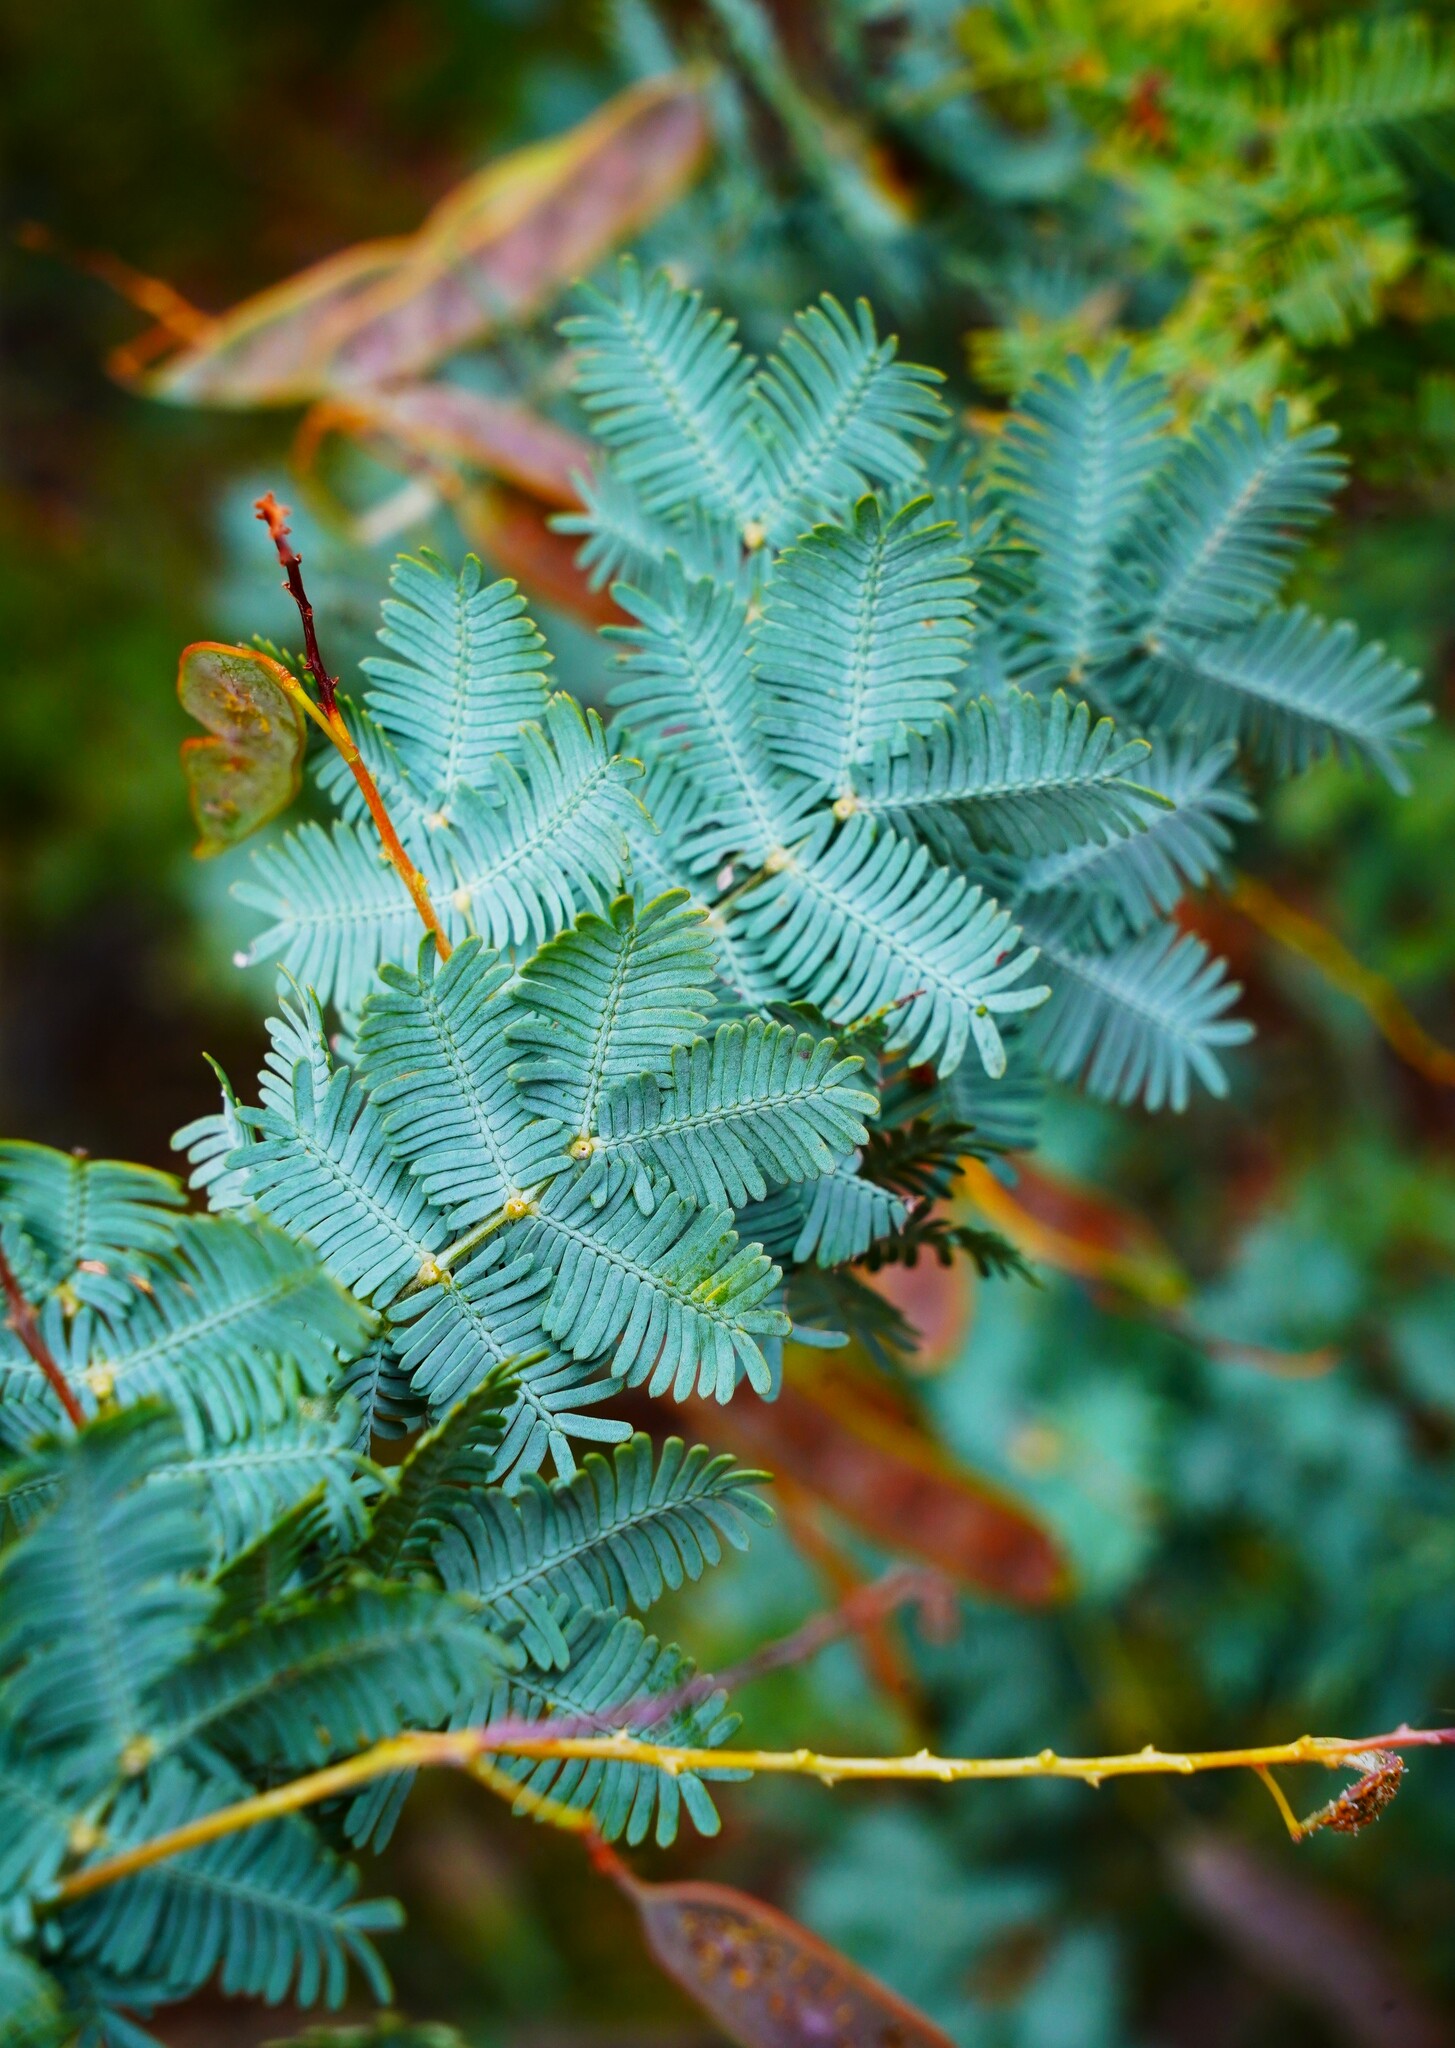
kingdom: Plantae
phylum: Tracheophyta
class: Magnoliopsida
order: Fabales
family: Fabaceae
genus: Acacia
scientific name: Acacia baileyana
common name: Cootamundra wattle
